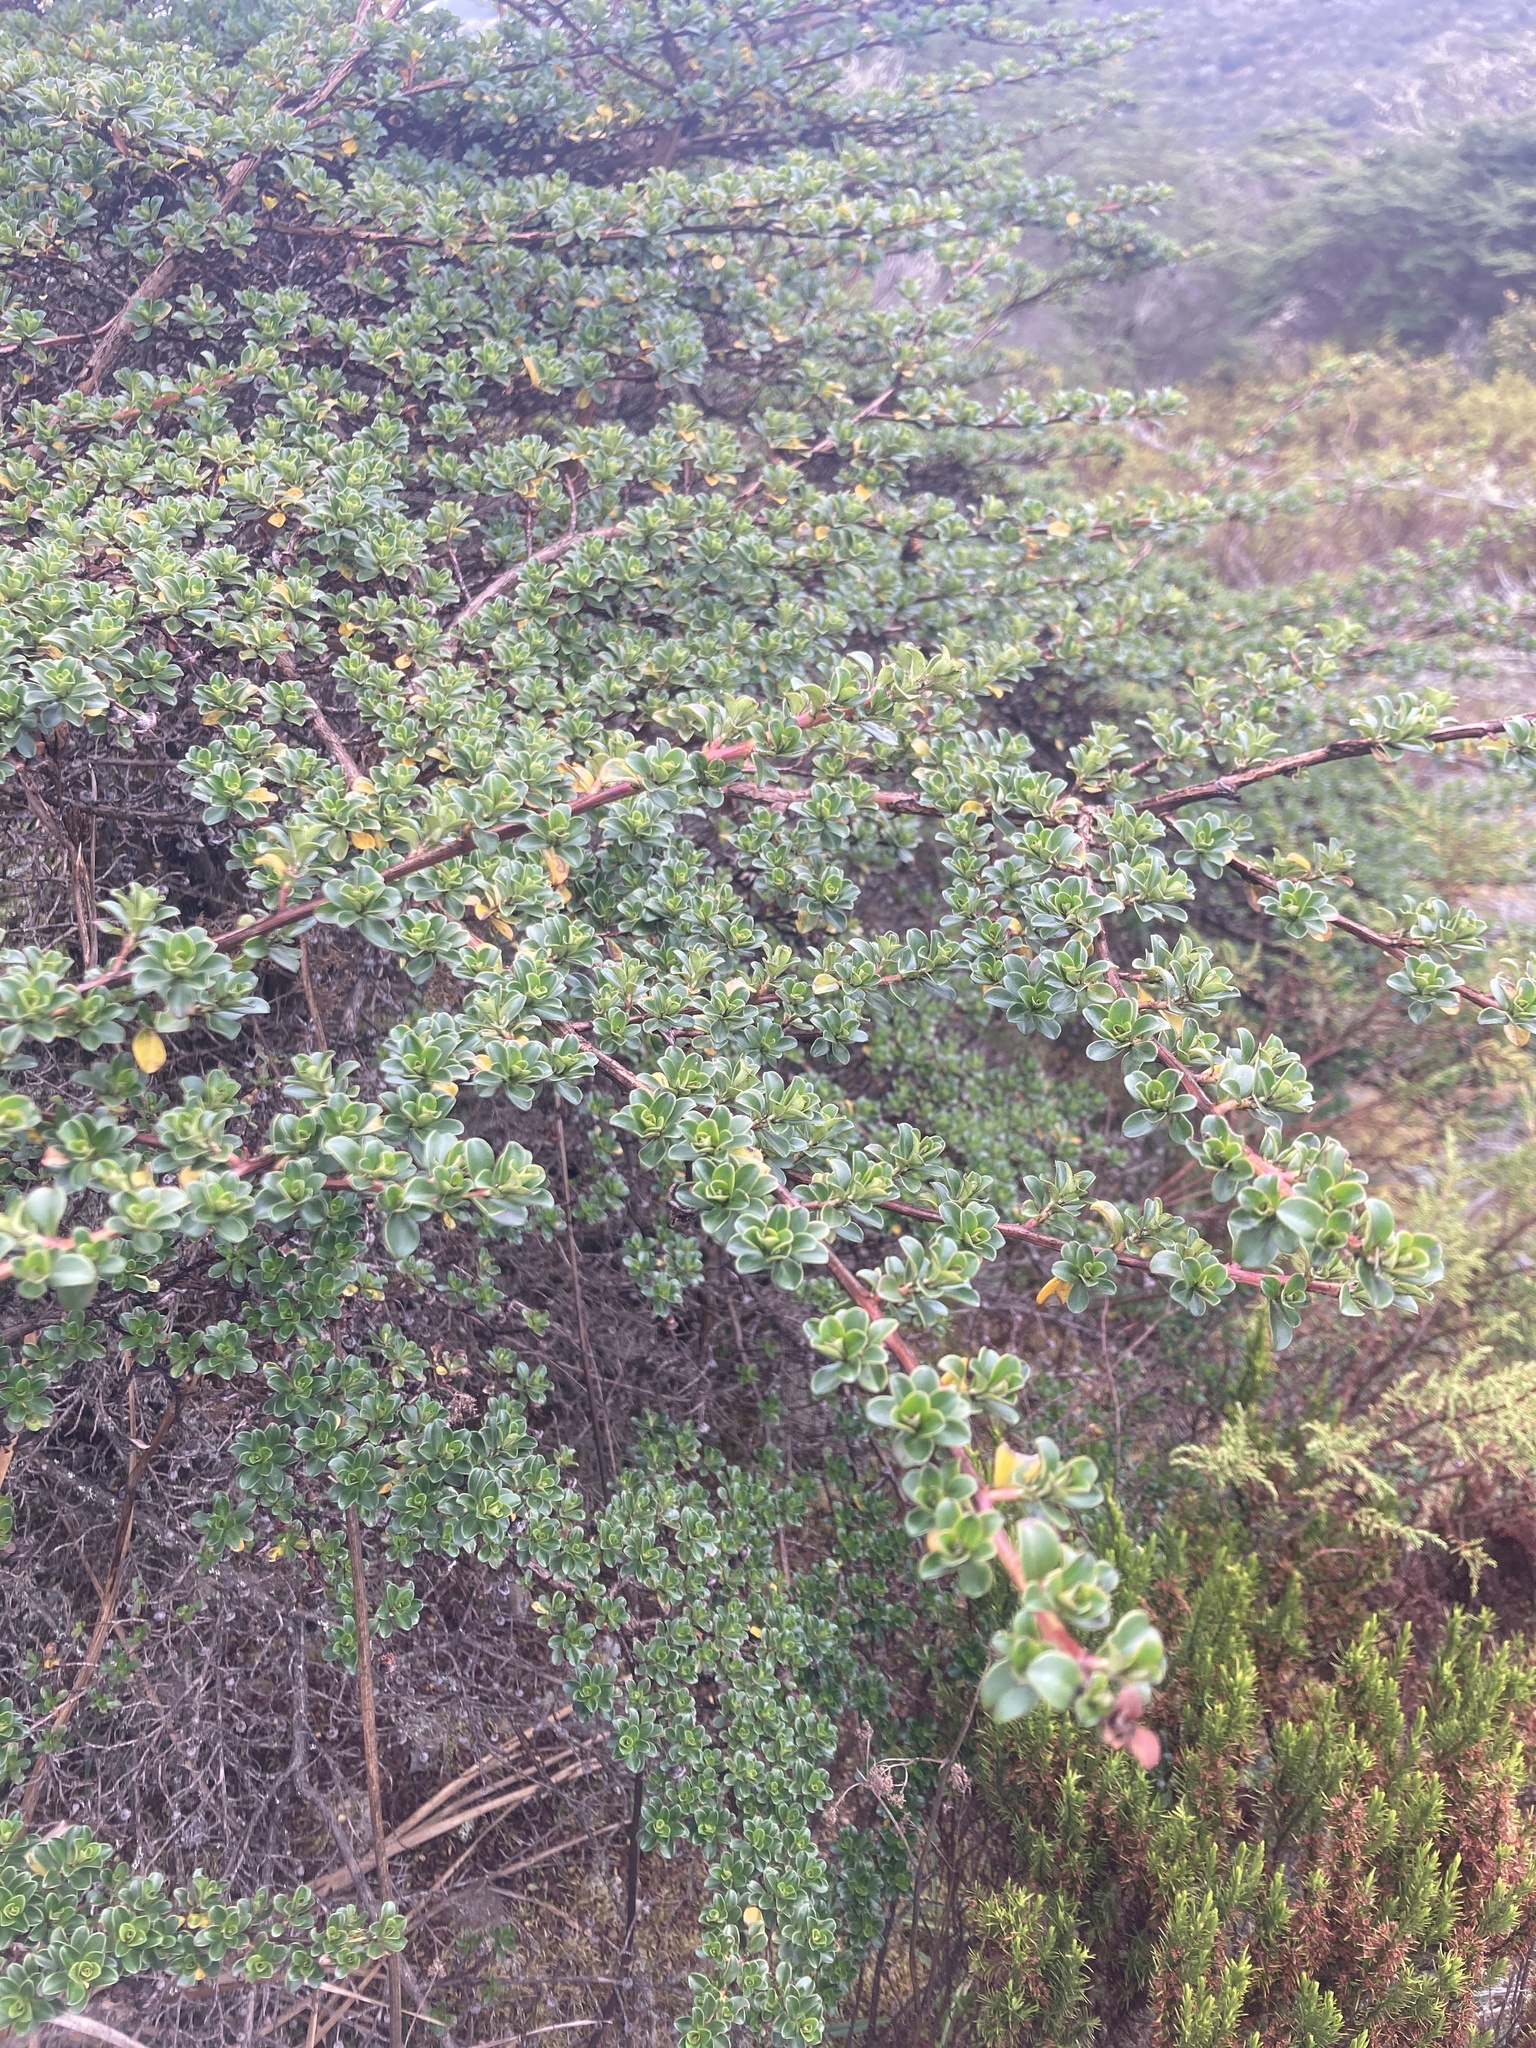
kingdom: Plantae
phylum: Tracheophyta
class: Magnoliopsida
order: Escalloniales
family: Escalloniaceae
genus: Escallonia
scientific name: Escallonia myrtilloides
